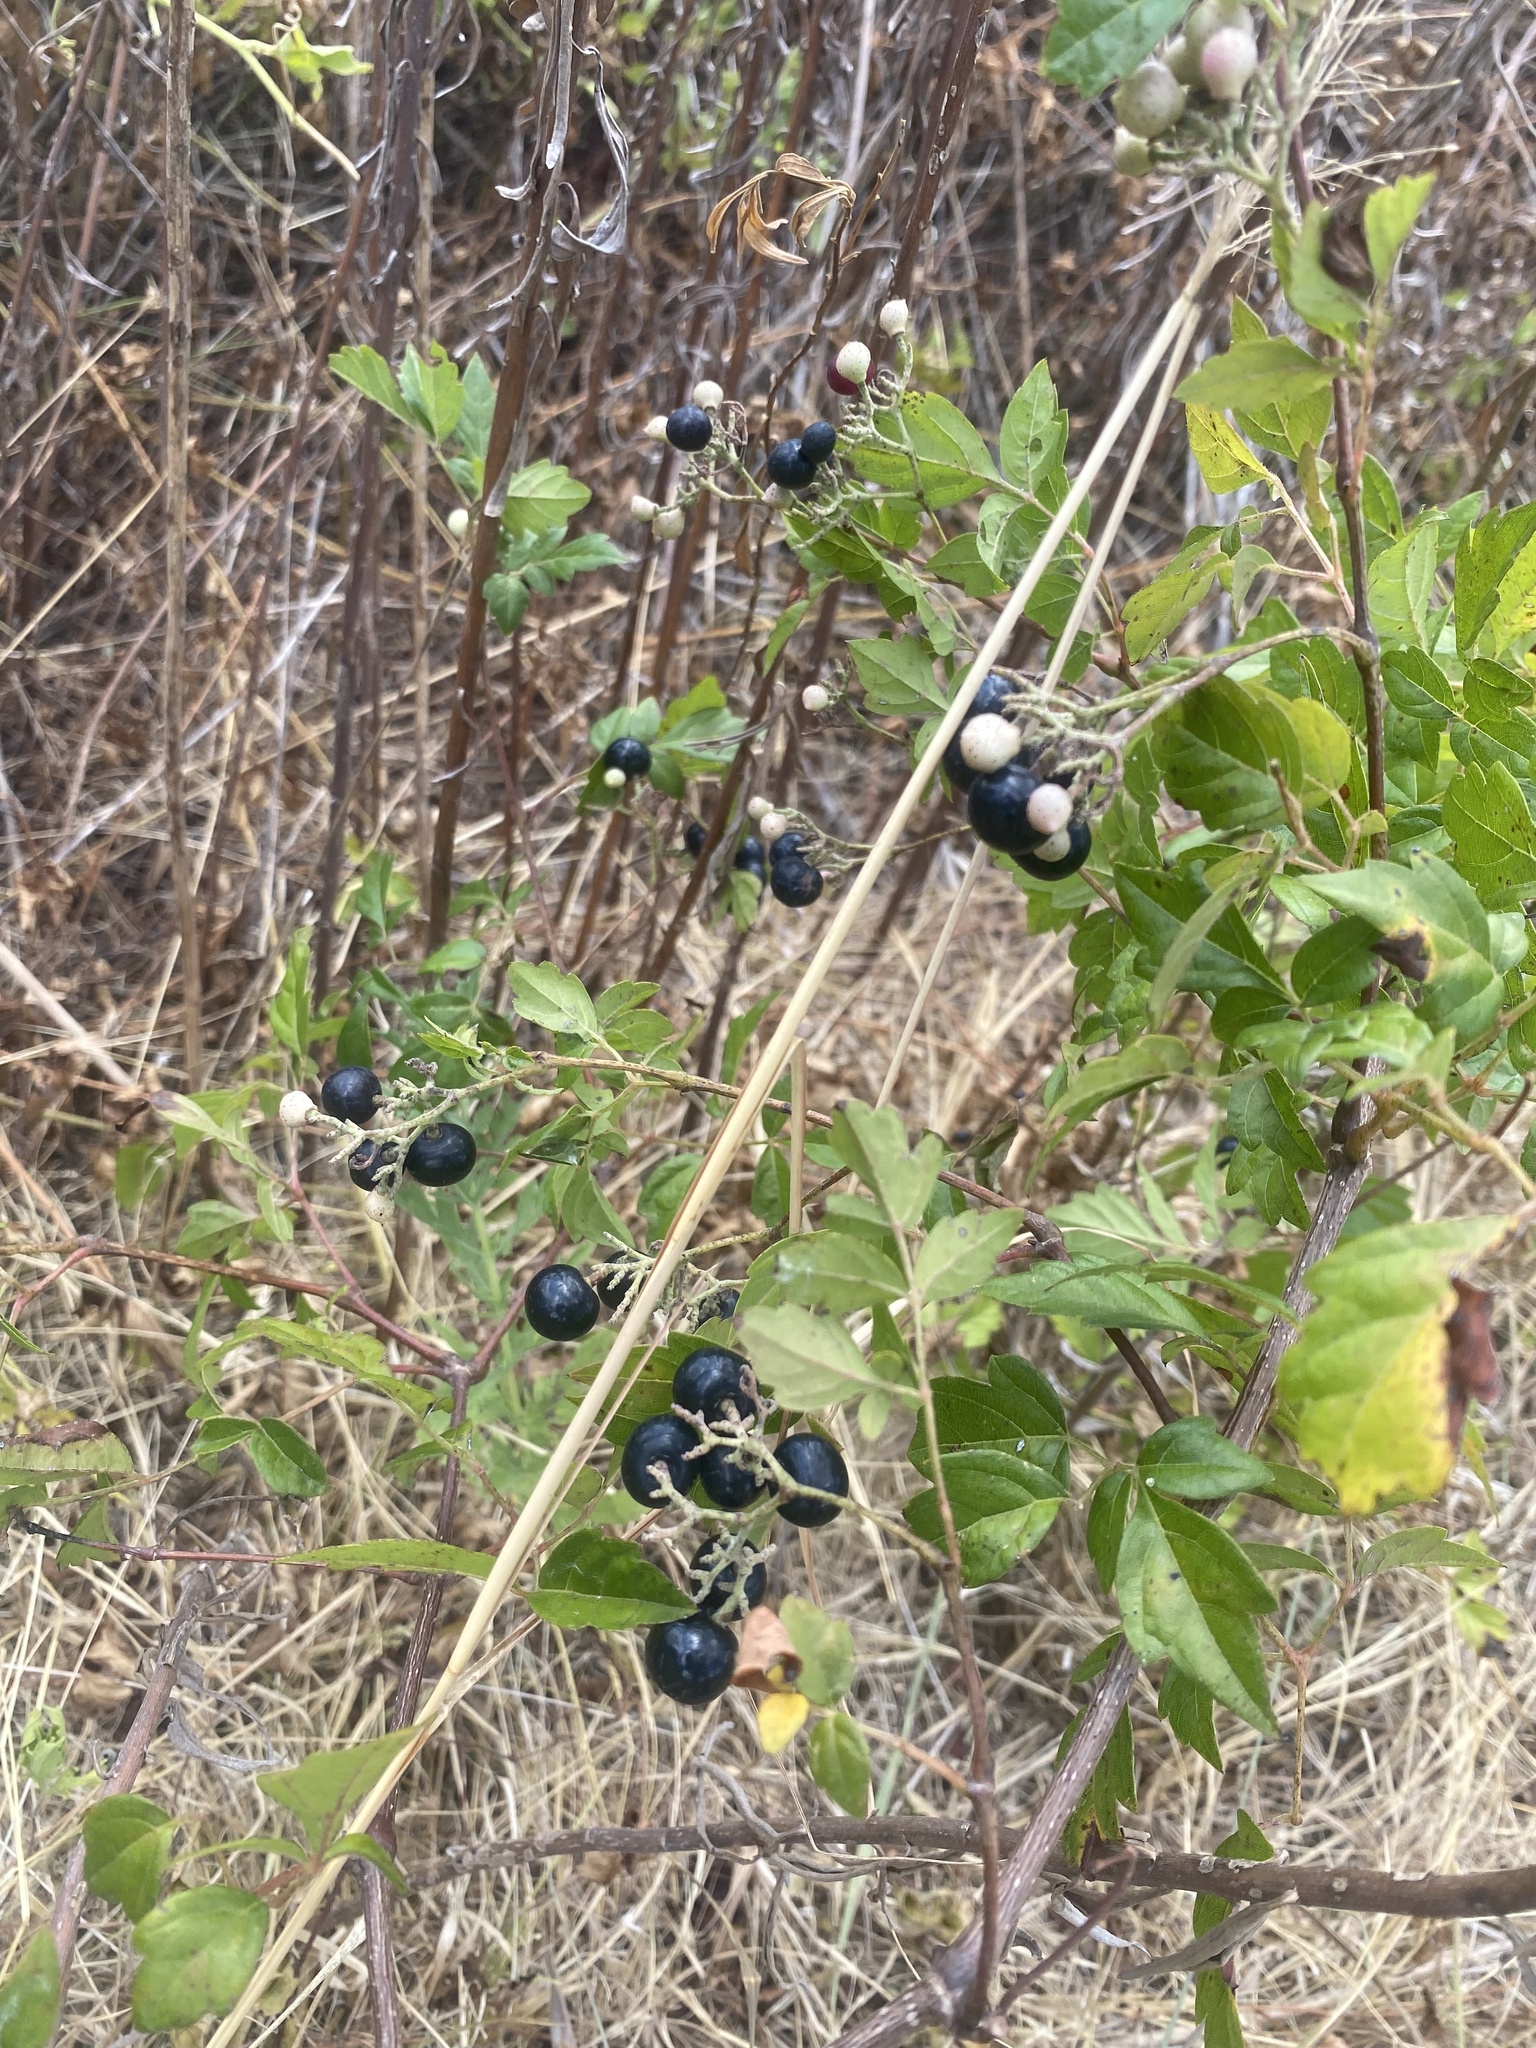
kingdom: Plantae
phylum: Tracheophyta
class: Magnoliopsida
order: Vitales
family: Vitaceae
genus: Nekemias
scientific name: Nekemias arborea
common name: Peppervine
